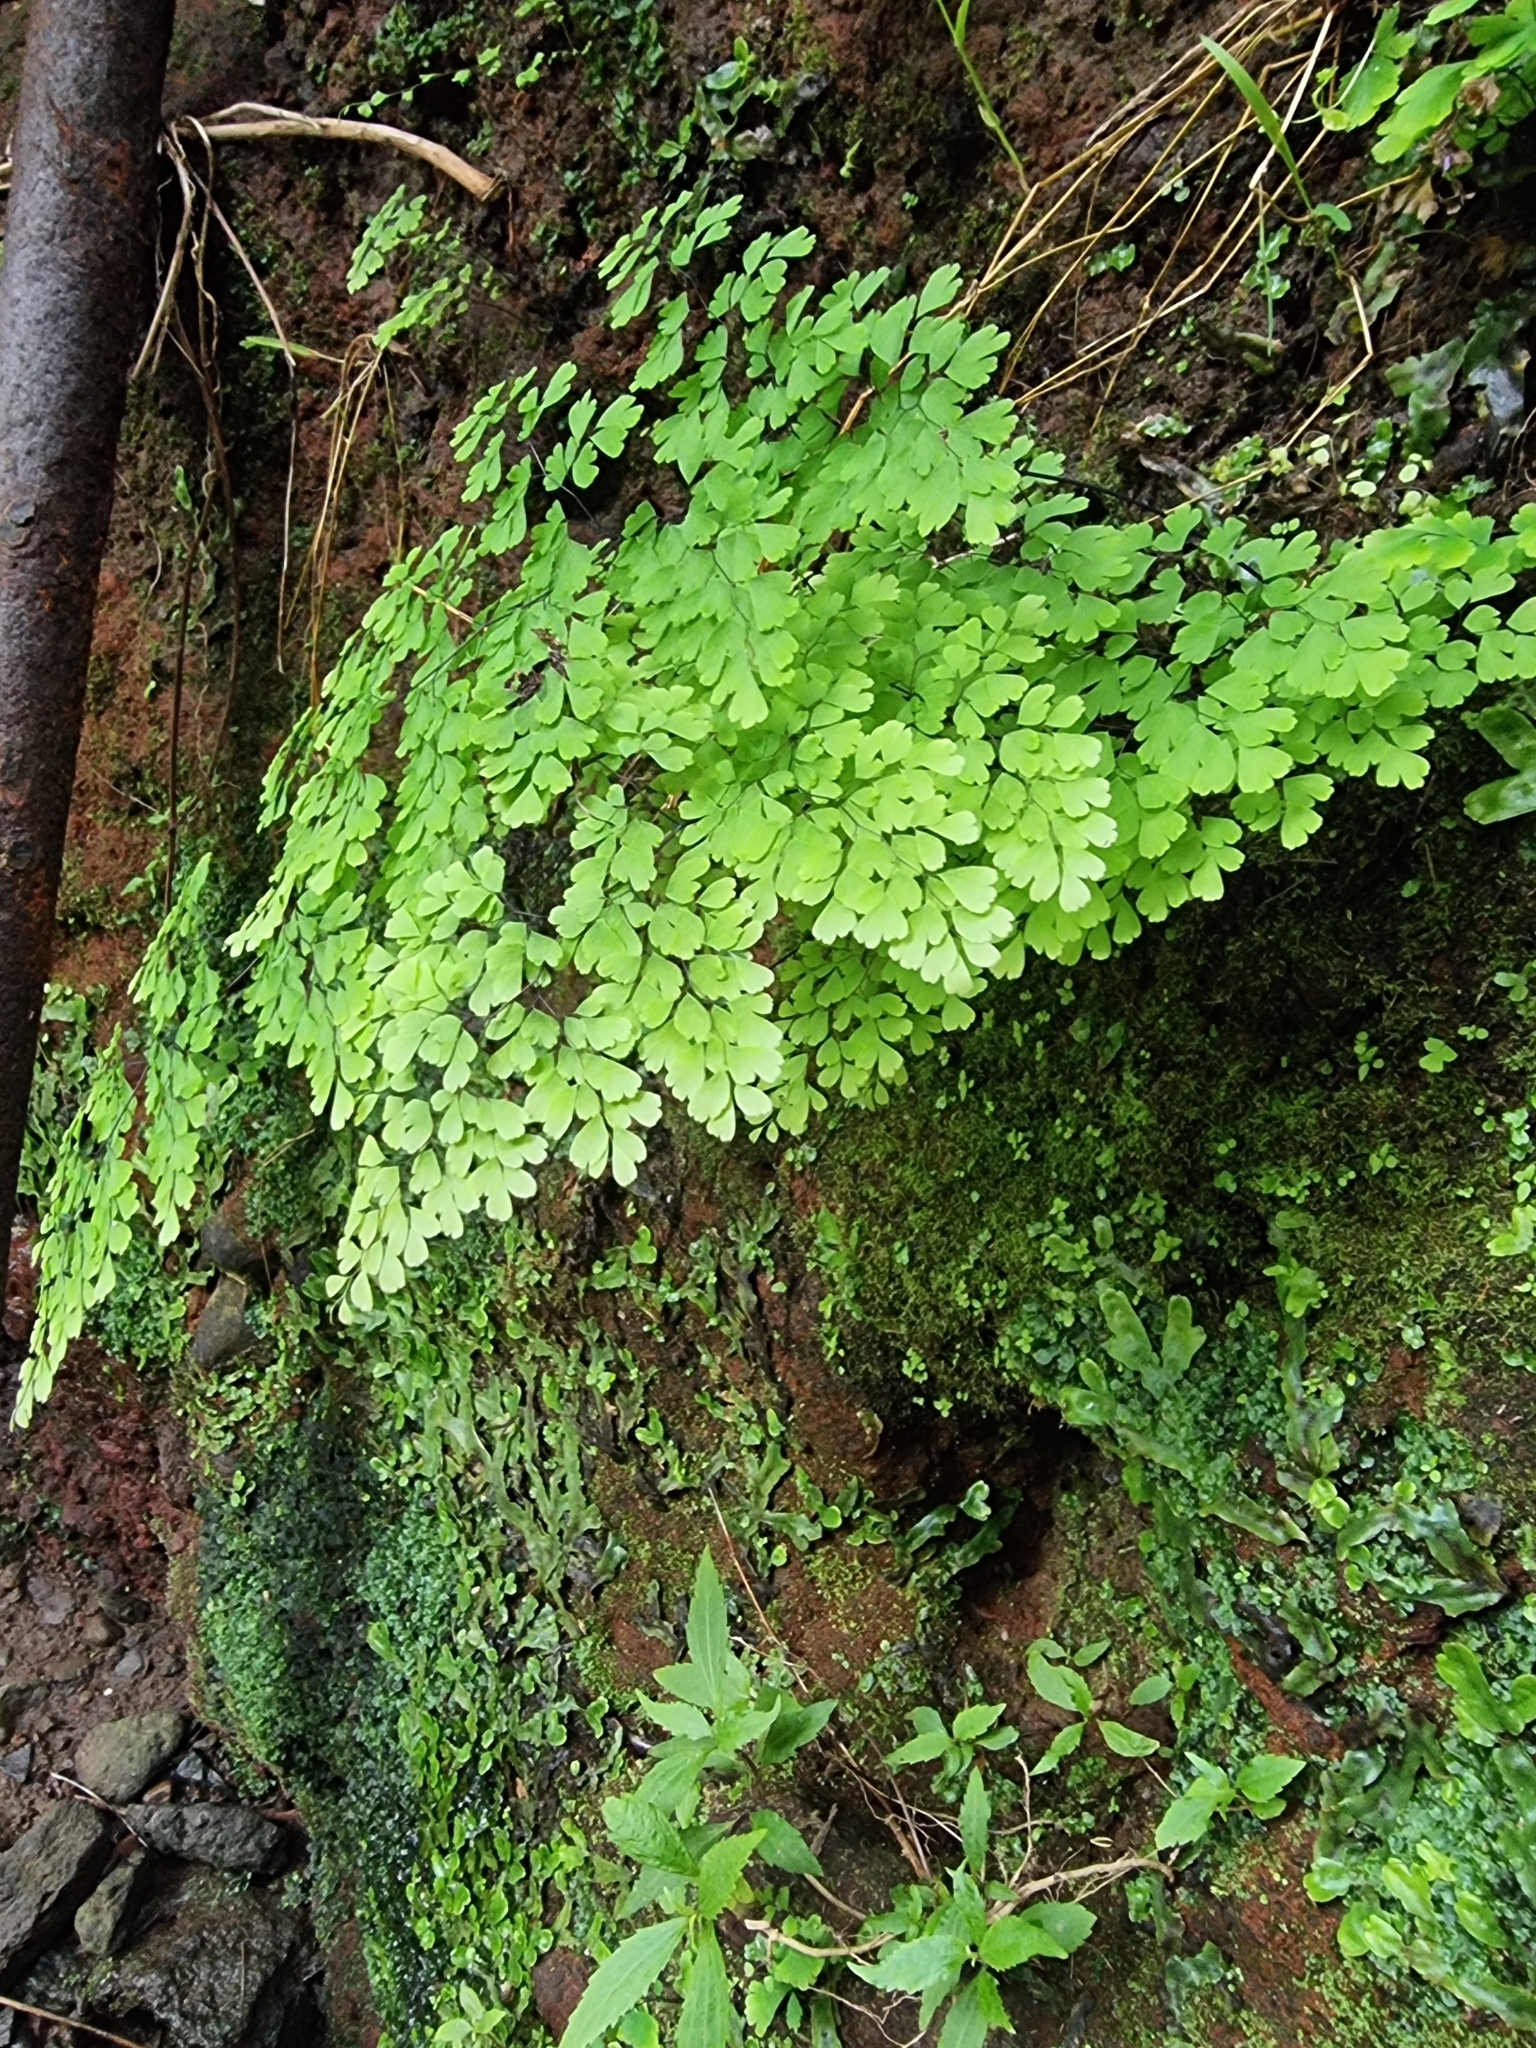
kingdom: Plantae
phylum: Tracheophyta
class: Polypodiopsida
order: Polypodiales
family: Pteridaceae
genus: Adiantum
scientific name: Adiantum raddianum
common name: Delta maidenhair fern
